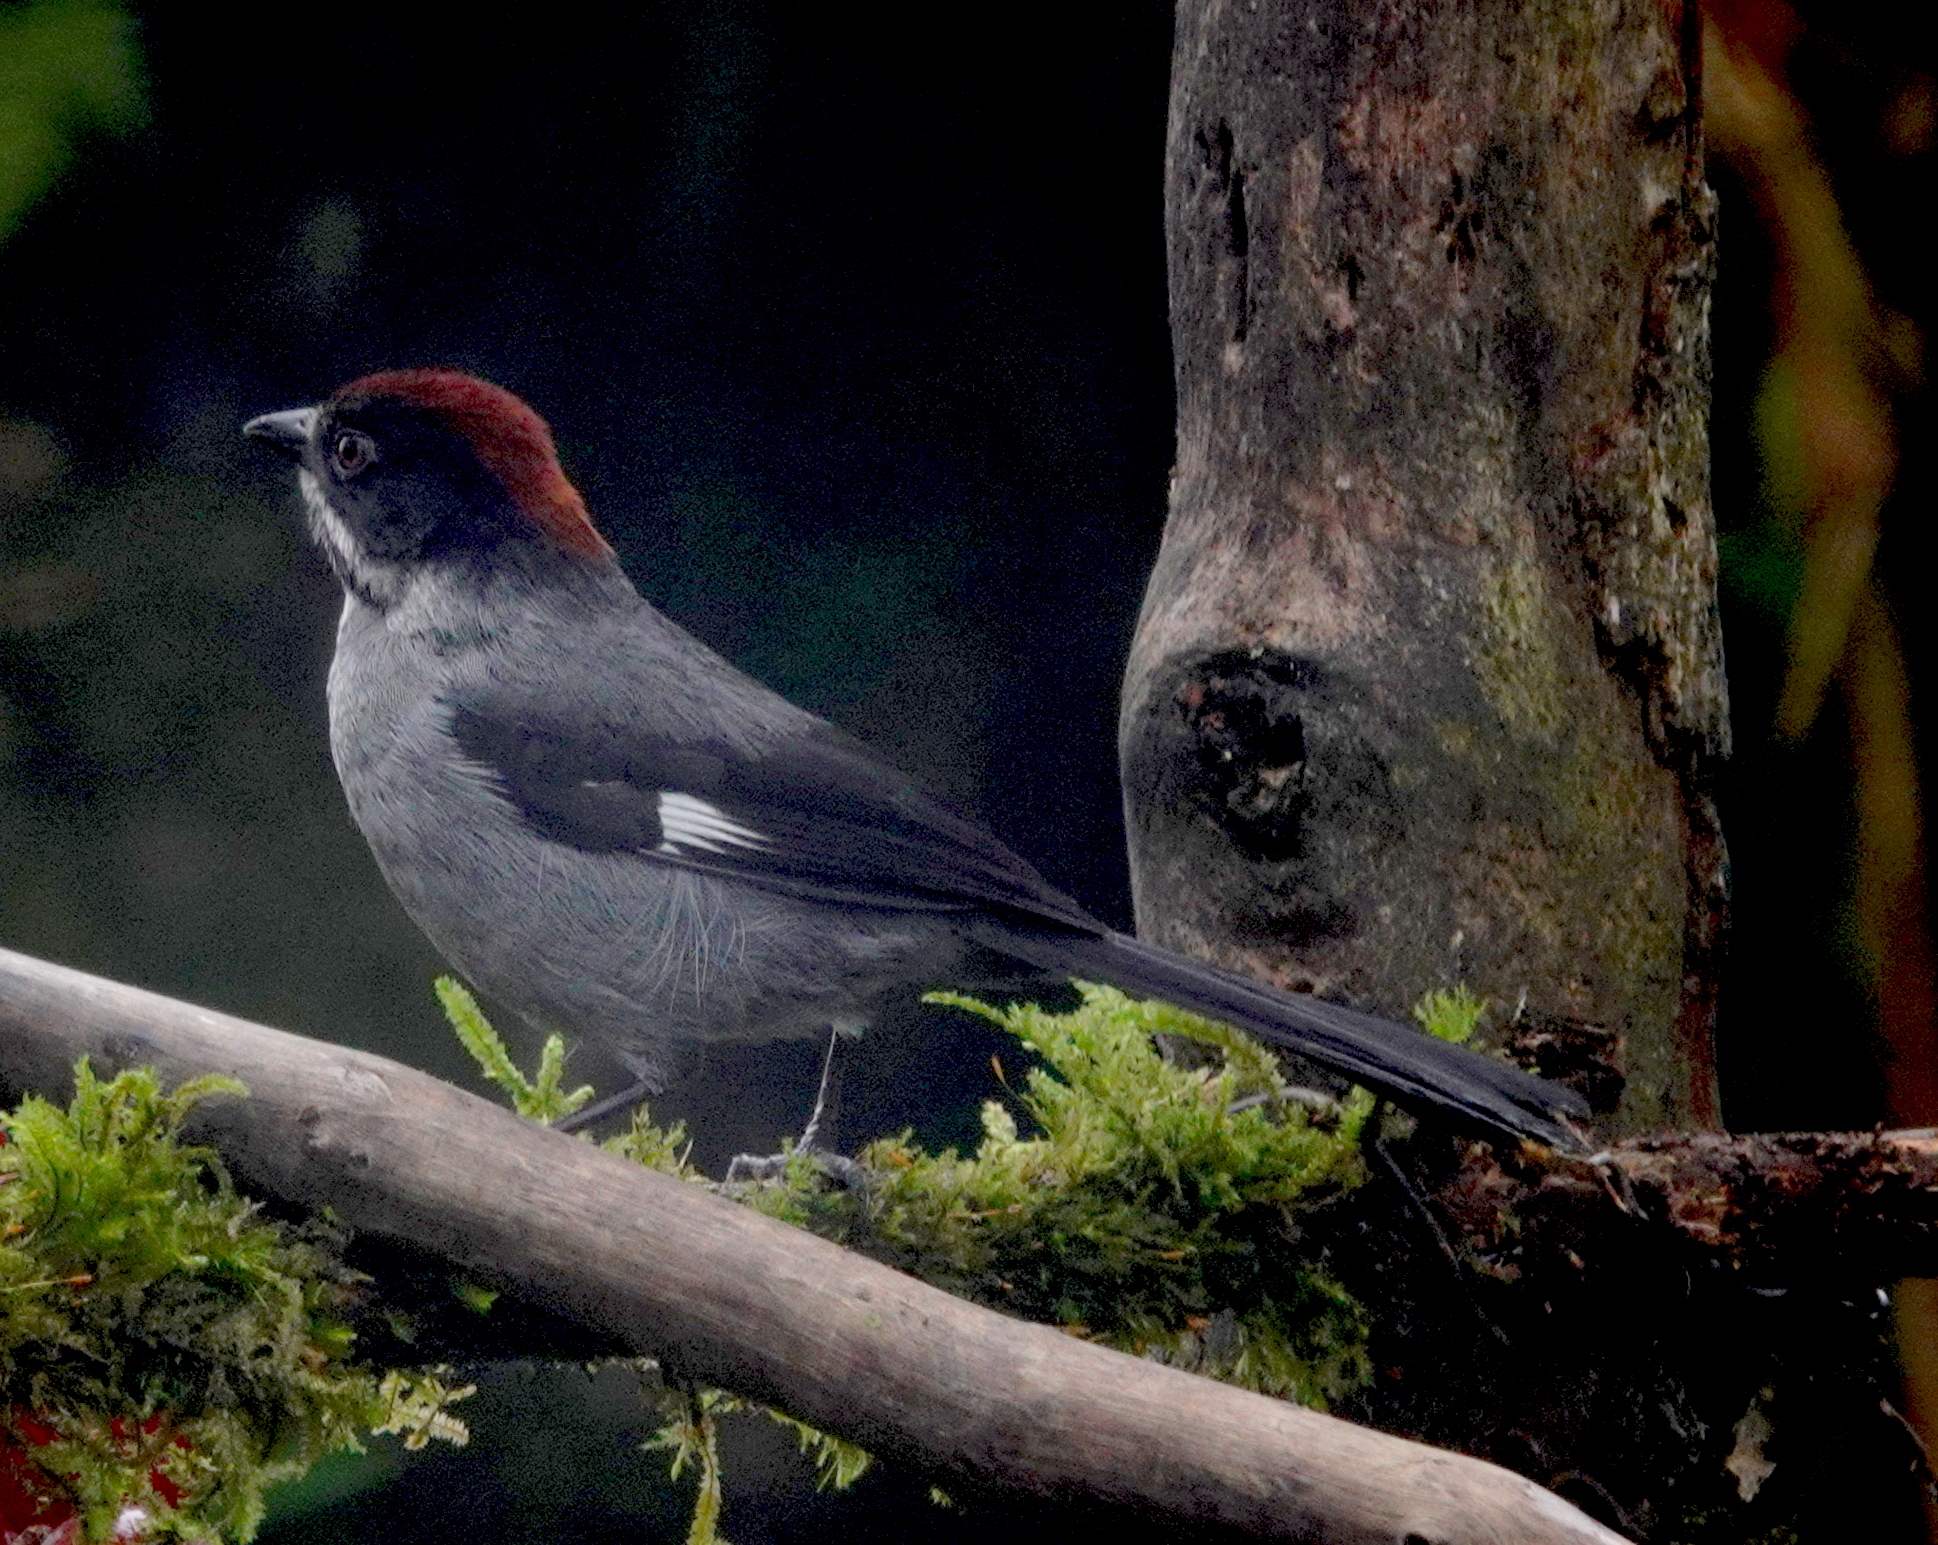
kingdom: Animalia
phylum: Chordata
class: Aves
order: Passeriformes
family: Passerellidae
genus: Atlapetes
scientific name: Atlapetes schistaceus
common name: Slaty brushfinch
